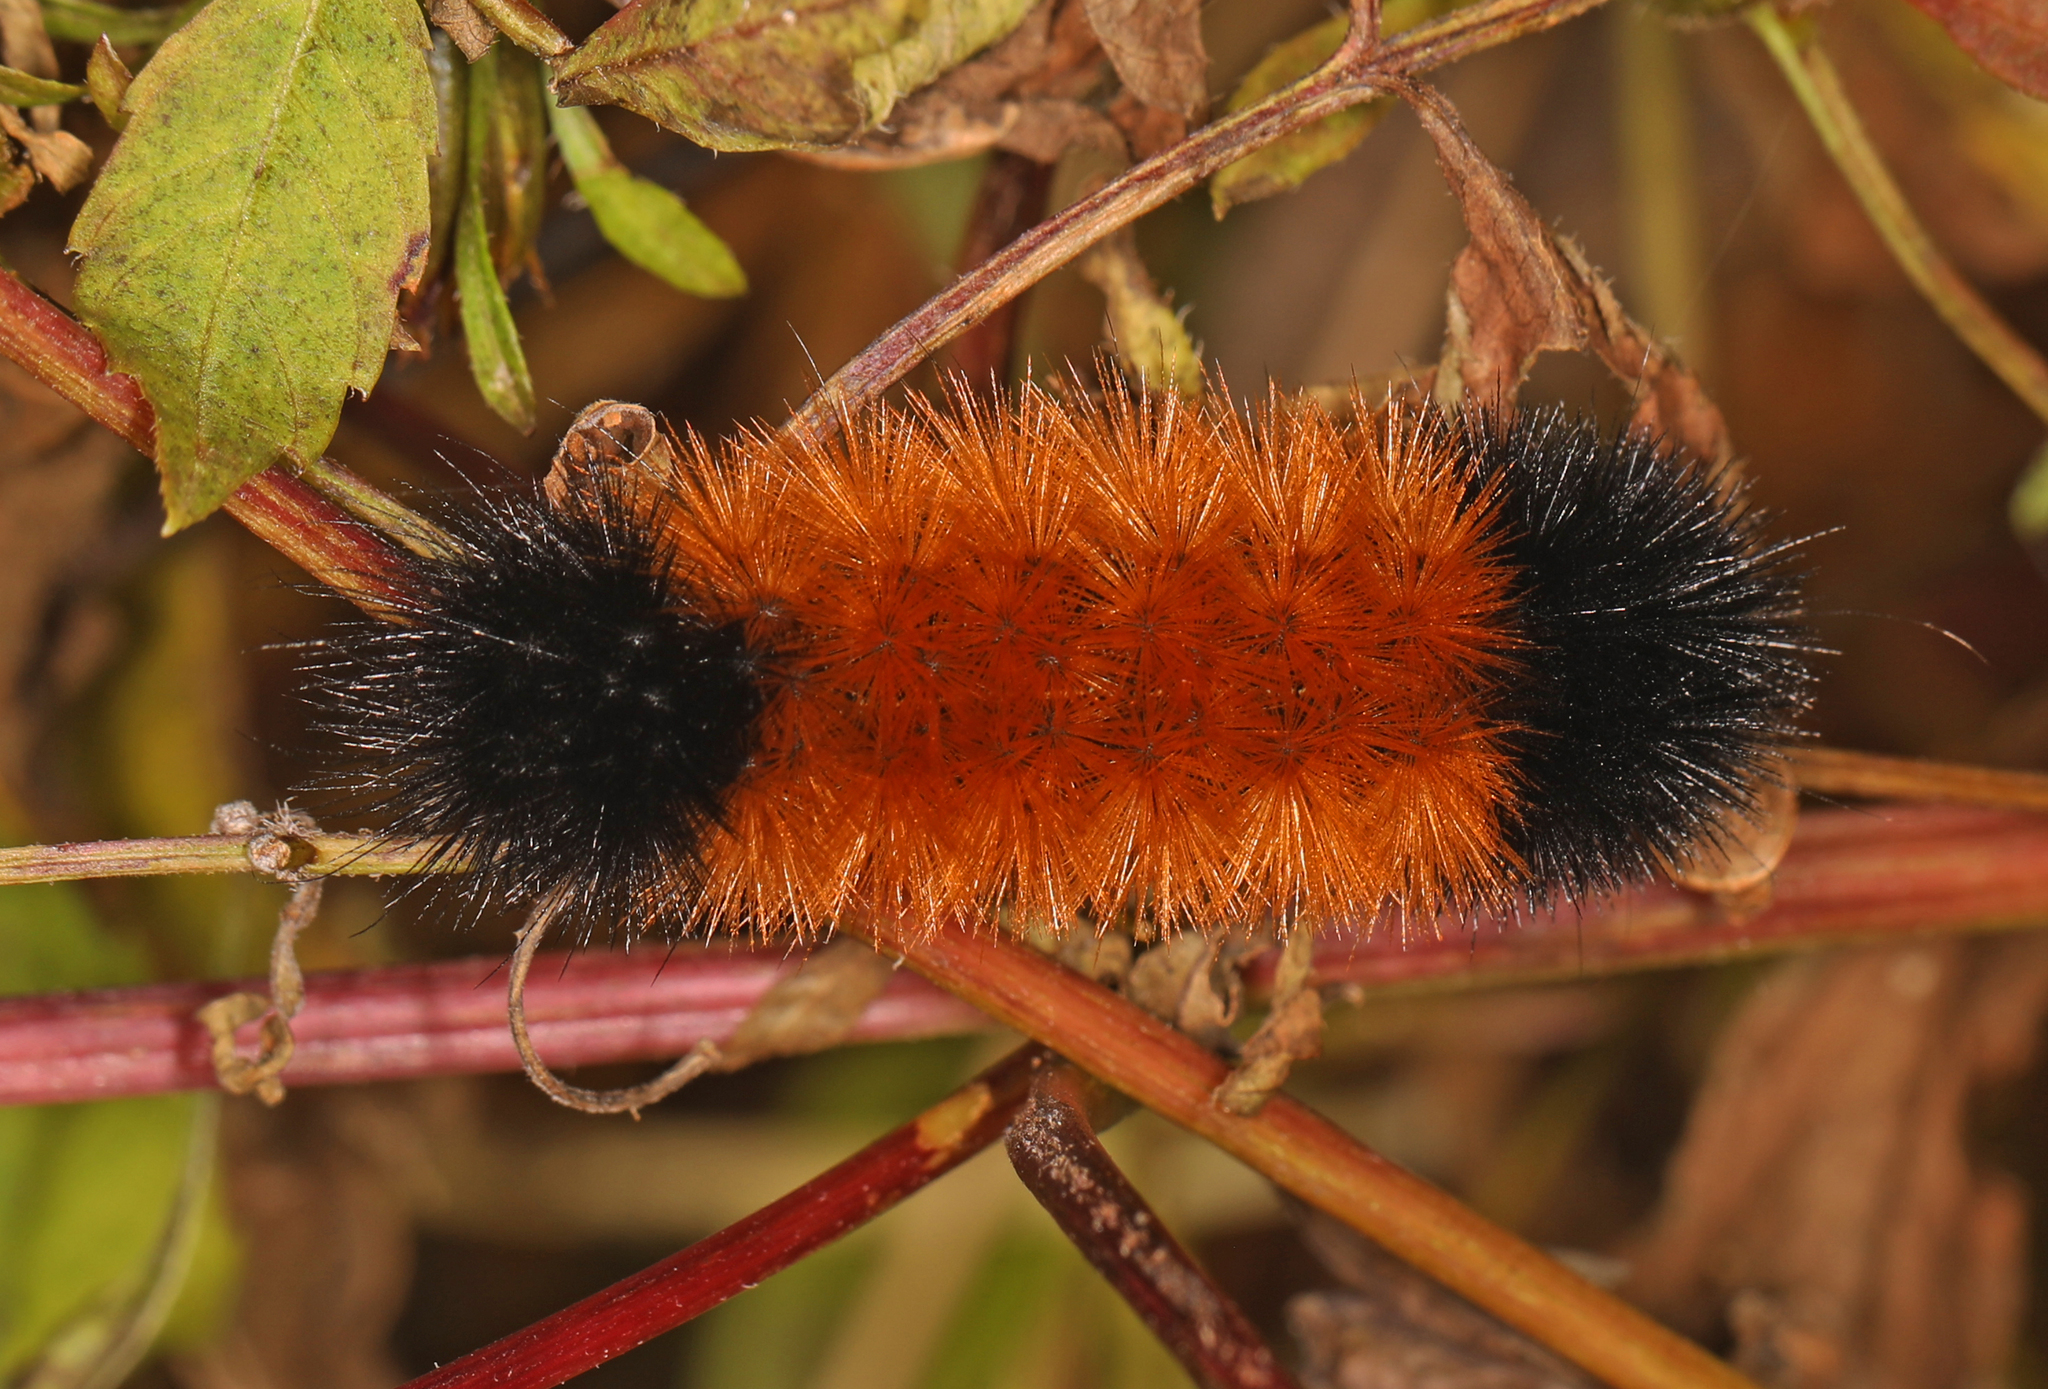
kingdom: Animalia
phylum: Arthropoda
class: Insecta
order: Lepidoptera
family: Erebidae
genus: Pyrrharctia
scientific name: Pyrrharctia isabella
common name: Isabella tiger moth
